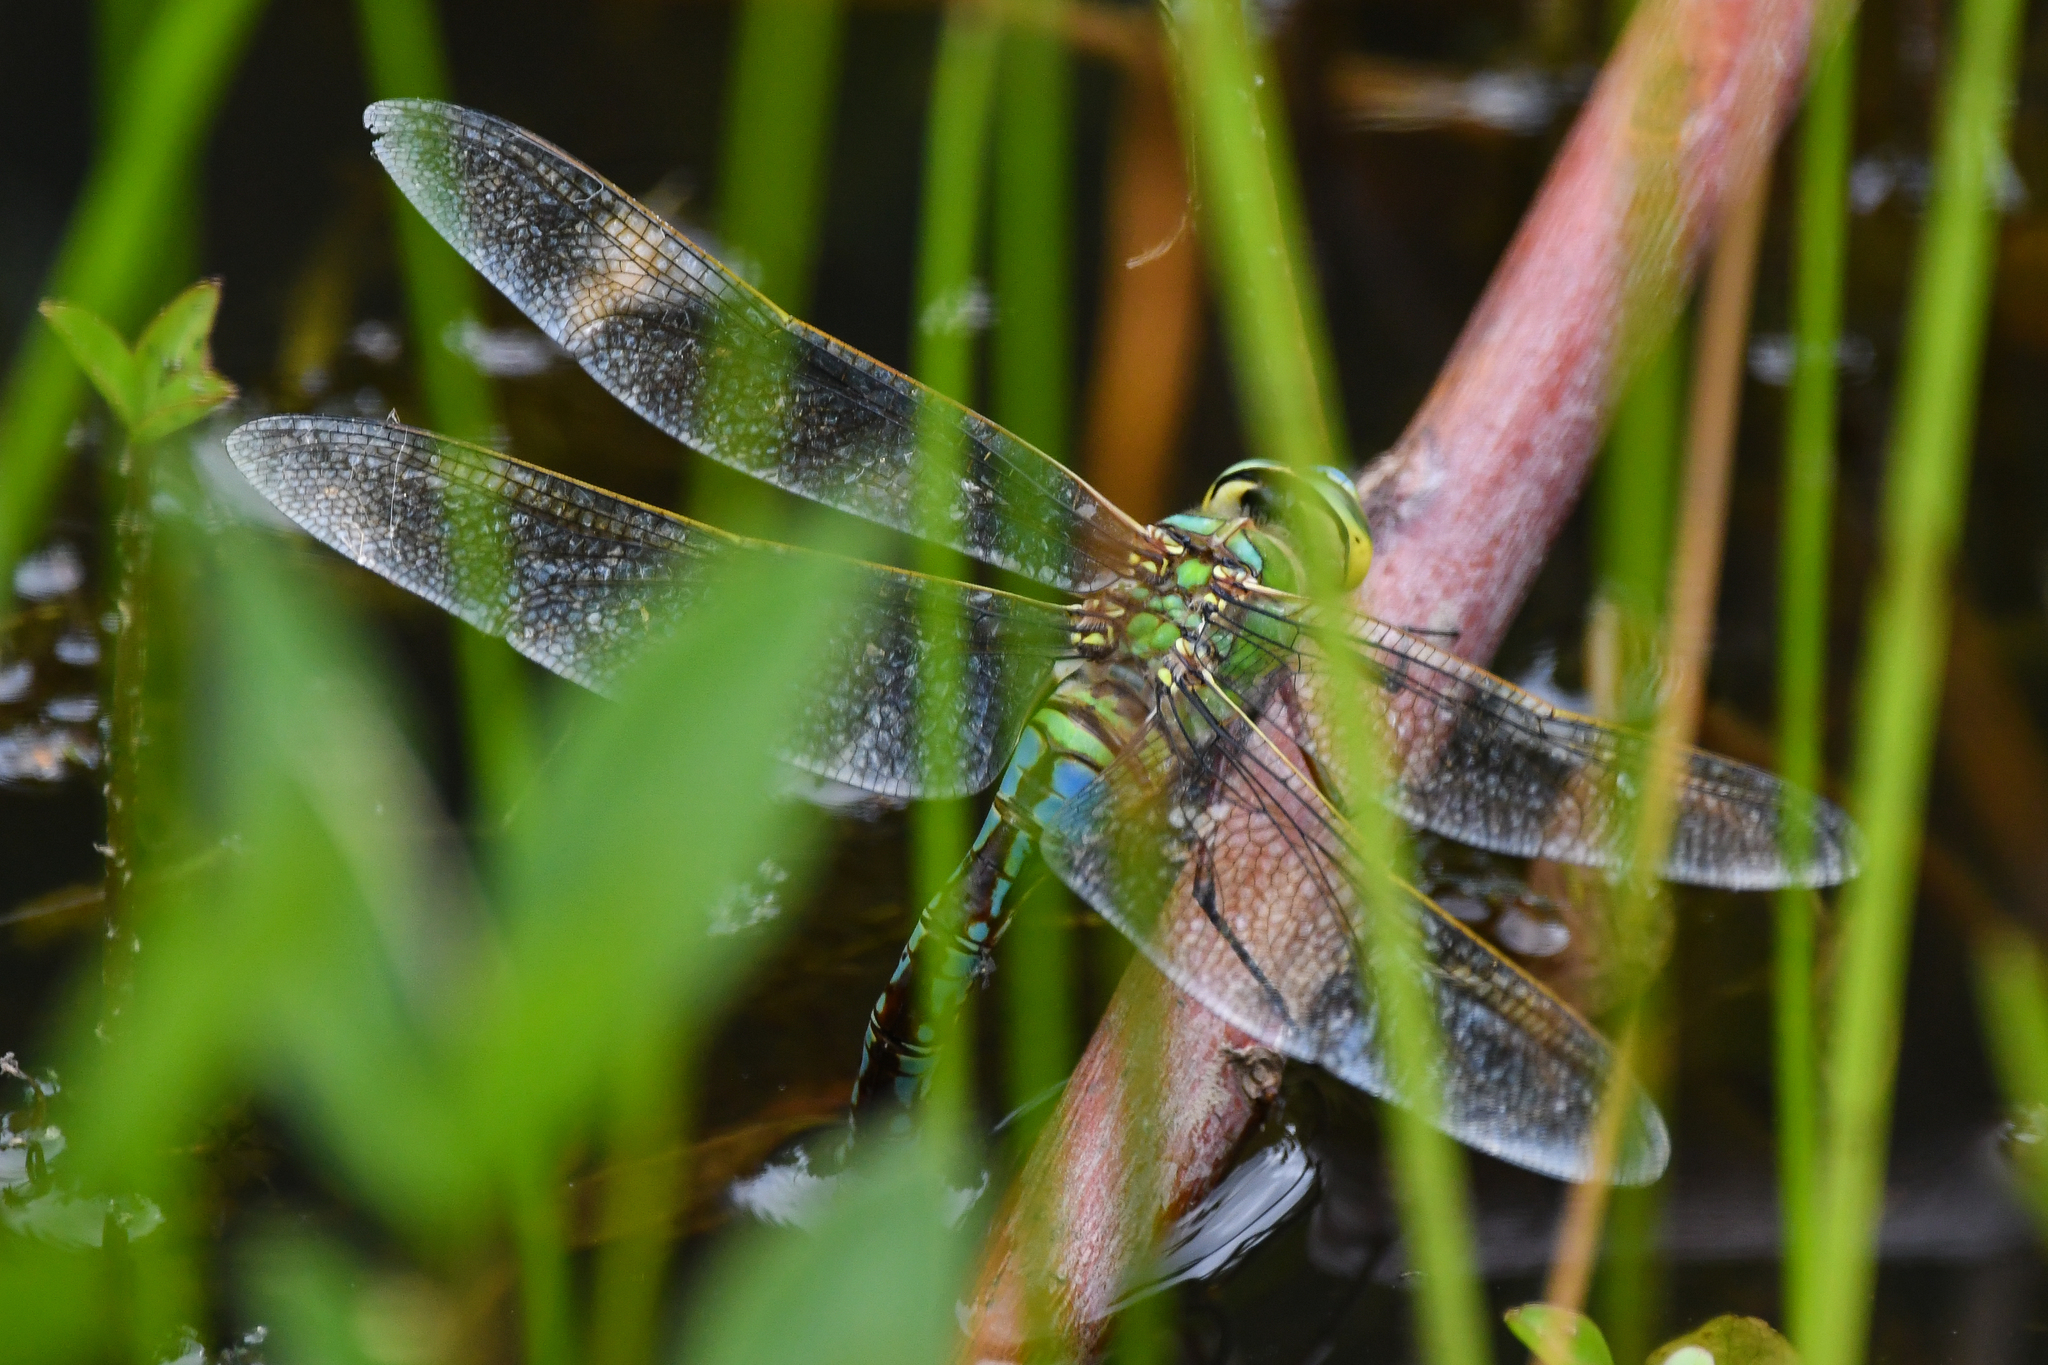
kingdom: Animalia
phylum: Arthropoda
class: Insecta
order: Odonata
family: Aeshnidae
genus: Anax
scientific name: Anax imperator
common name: Emperor dragonfly
